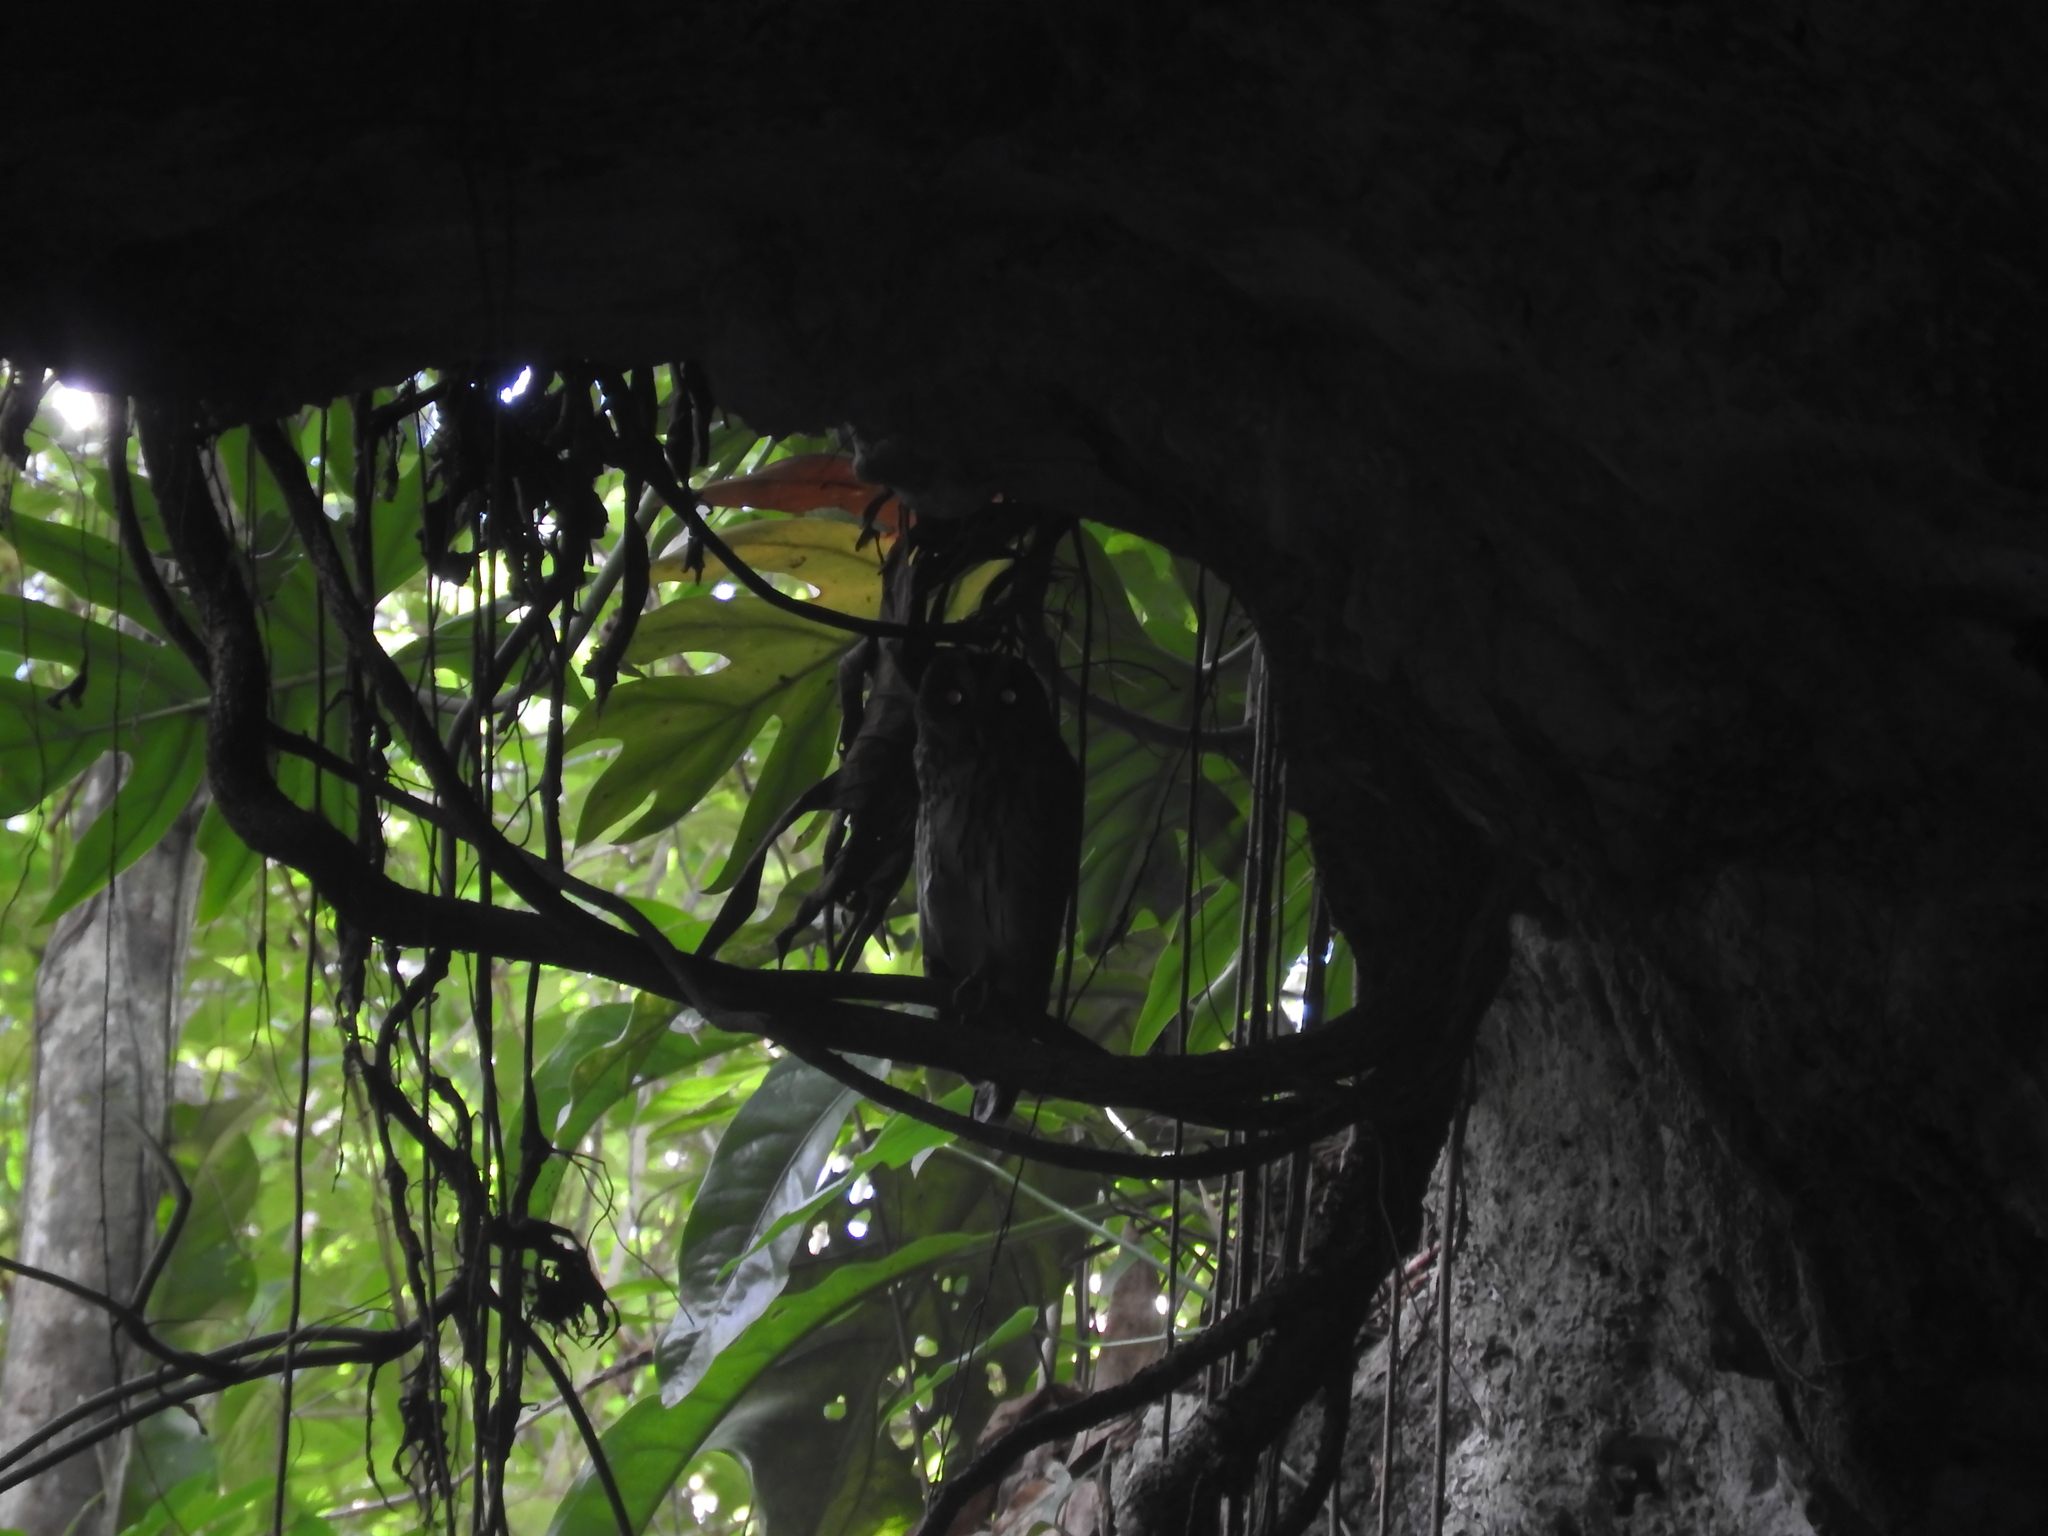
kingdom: Animalia
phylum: Chordata
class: Aves
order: Strigiformes
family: Strigidae
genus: Strix
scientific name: Strix virgata
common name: Mottled owl
